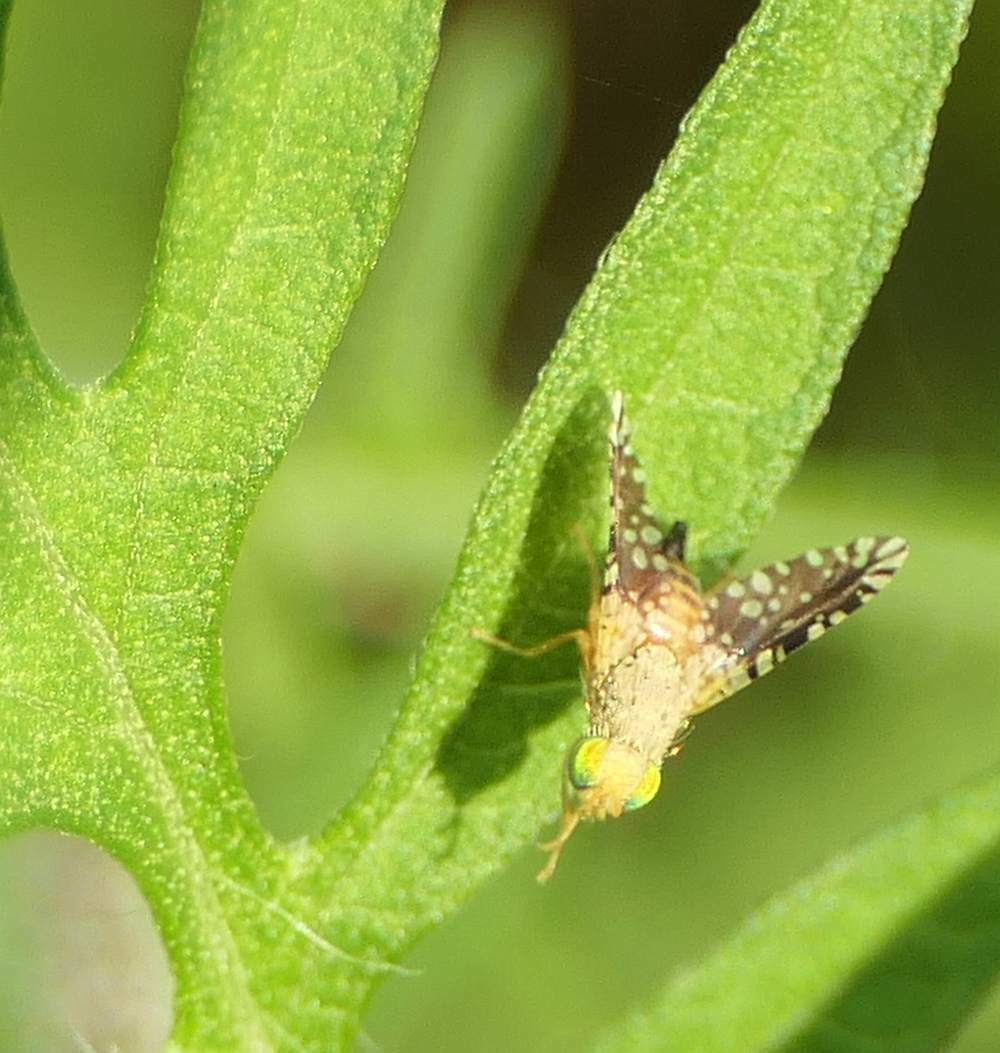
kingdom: Animalia
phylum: Arthropoda
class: Insecta
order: Diptera
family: Tephritidae
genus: Euaresta
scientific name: Euaresta bella
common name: Common ragweed fruit fly
